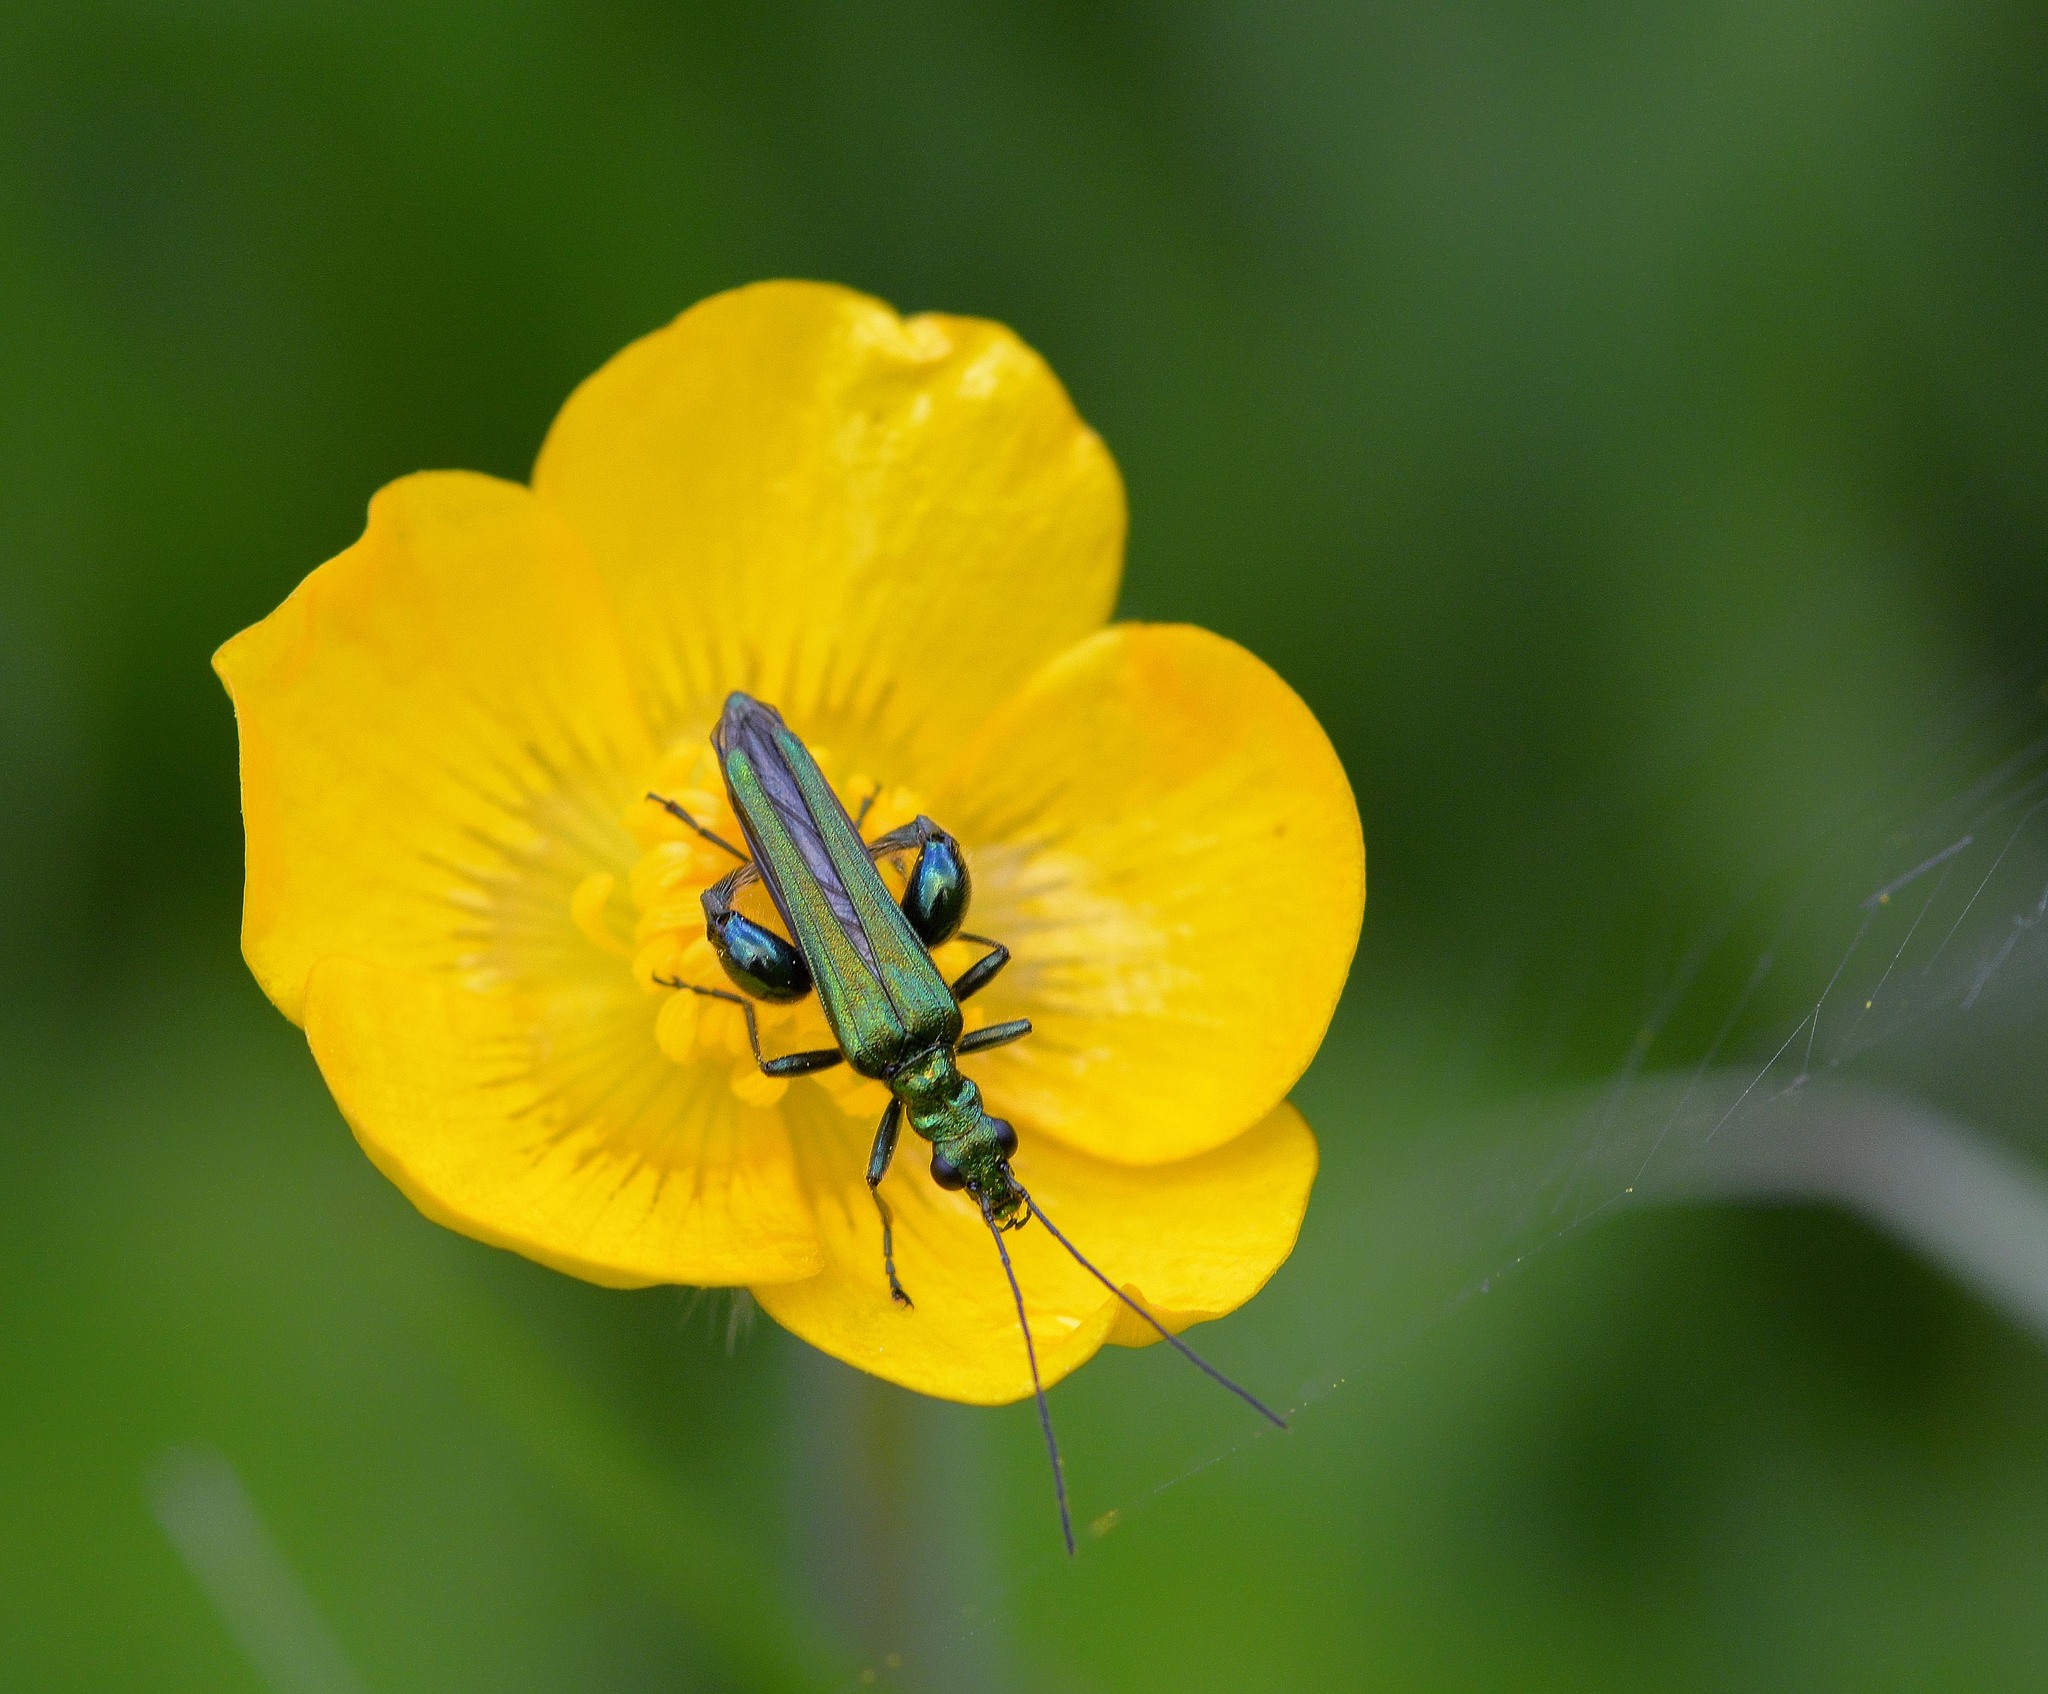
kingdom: Animalia
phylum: Arthropoda
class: Insecta
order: Coleoptera
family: Oedemeridae
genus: Oedemera
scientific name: Oedemera nobilis
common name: Swollen-thighed beetle
